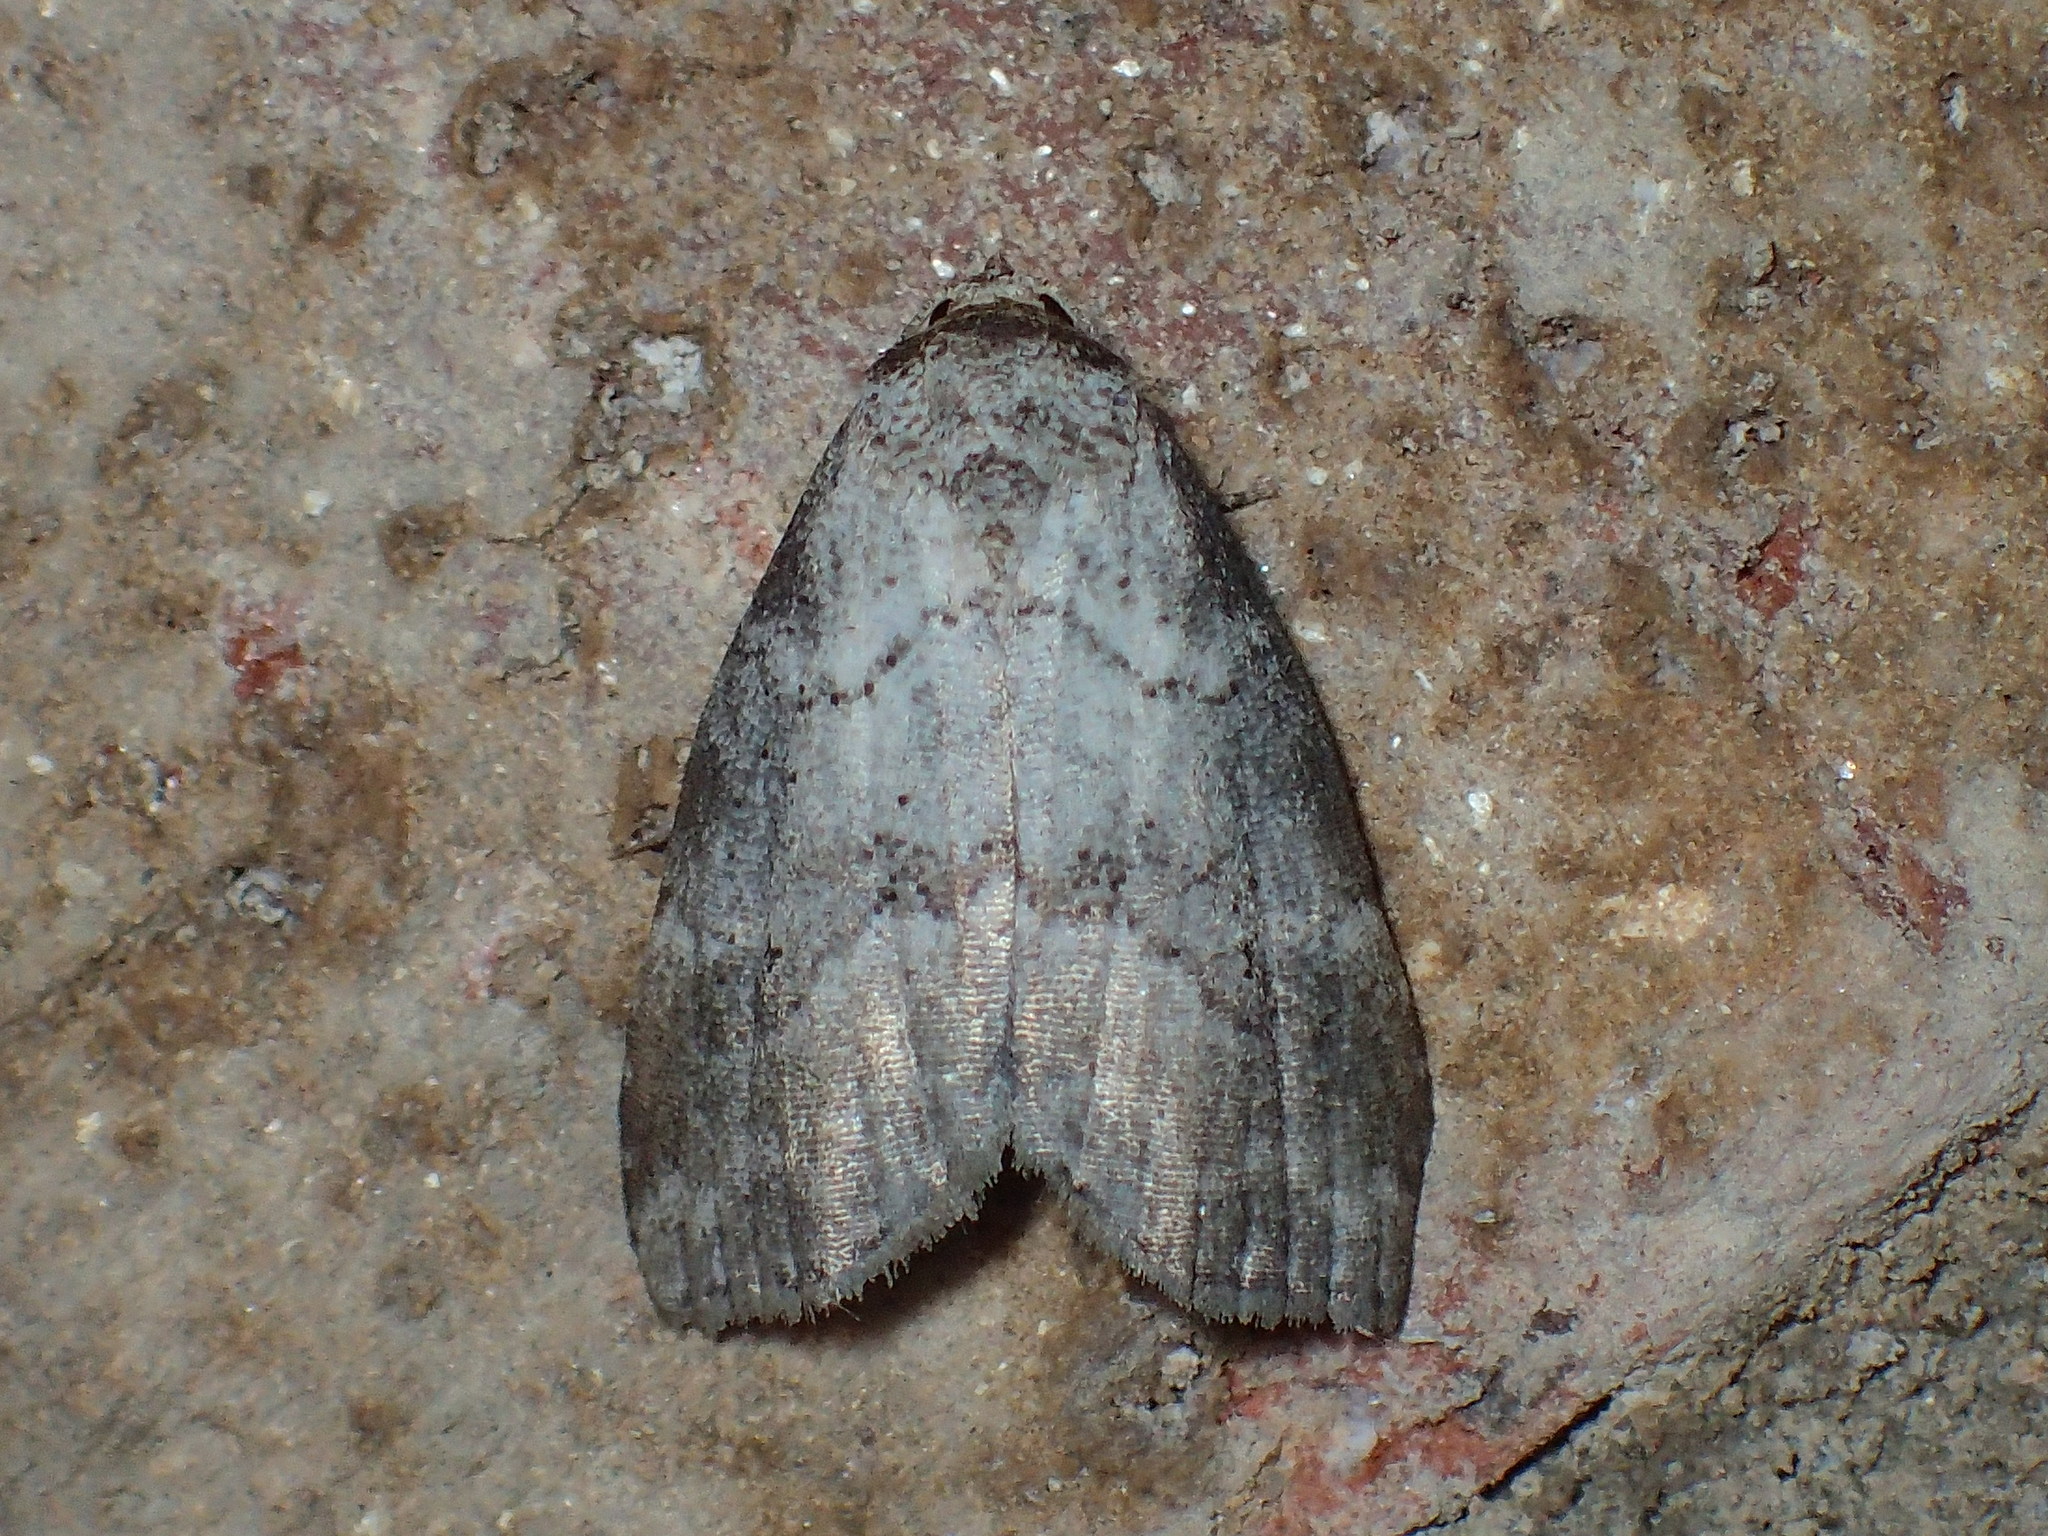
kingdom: Animalia
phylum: Arthropoda
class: Insecta
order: Lepidoptera
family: Erebidae
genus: Hyperstrotia
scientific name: Hyperstrotia pervertens
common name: Dotted graylet
